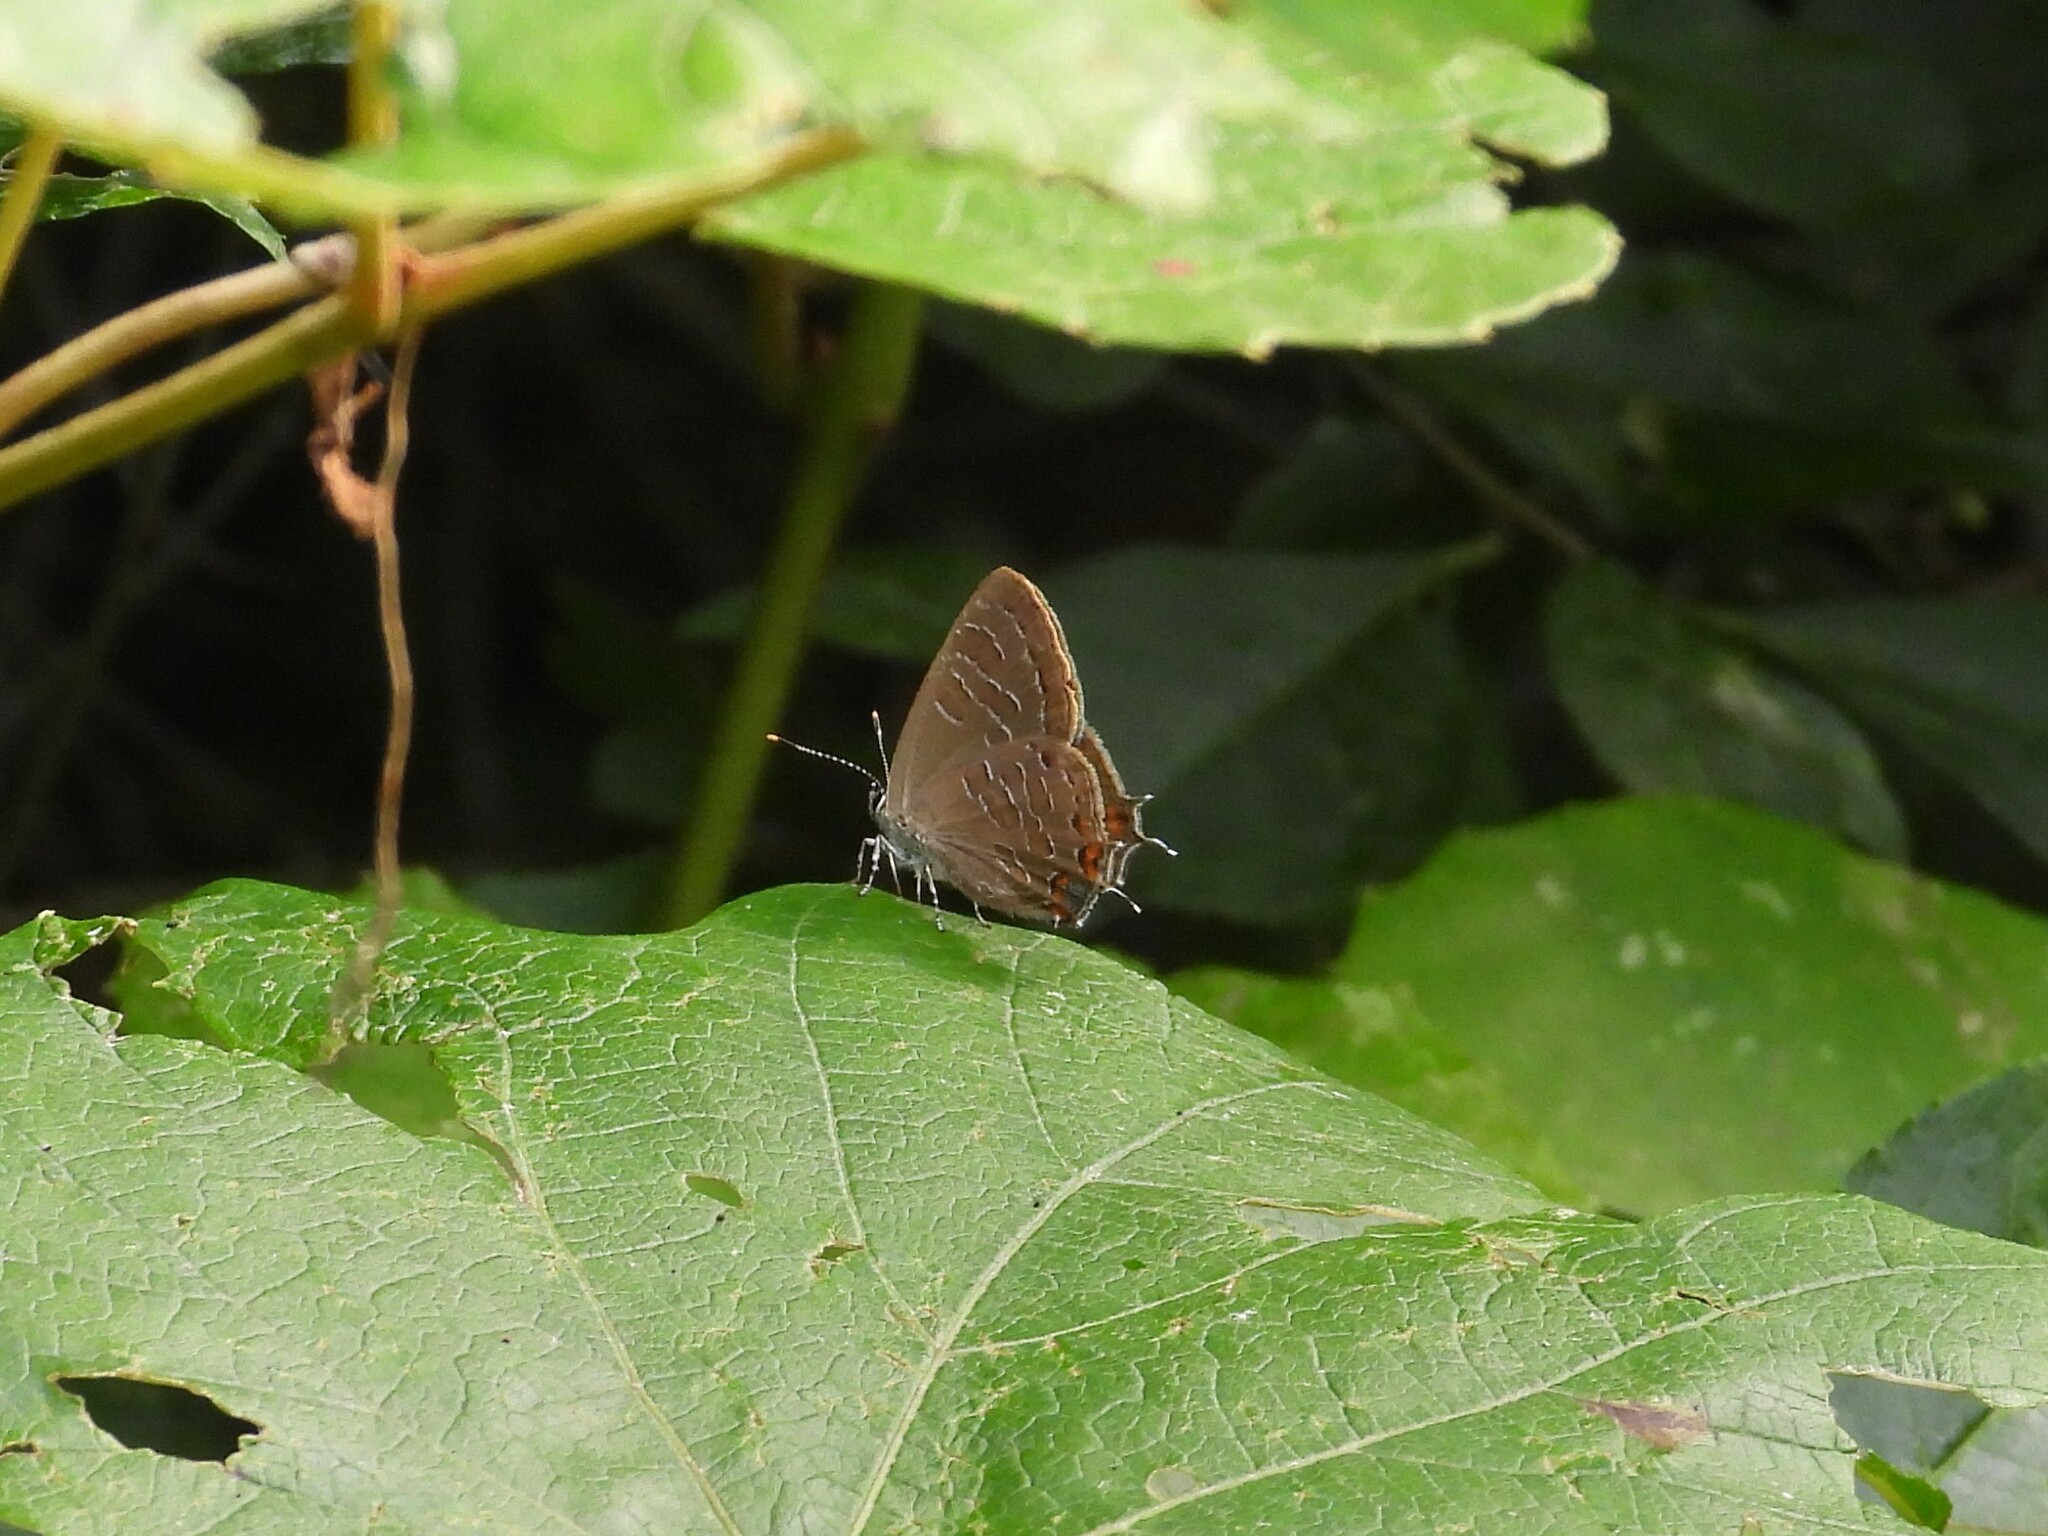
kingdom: Animalia
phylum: Arthropoda
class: Insecta
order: Lepidoptera
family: Lycaenidae
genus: Satyrium
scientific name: Satyrium liparops
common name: Striped hairstreak
